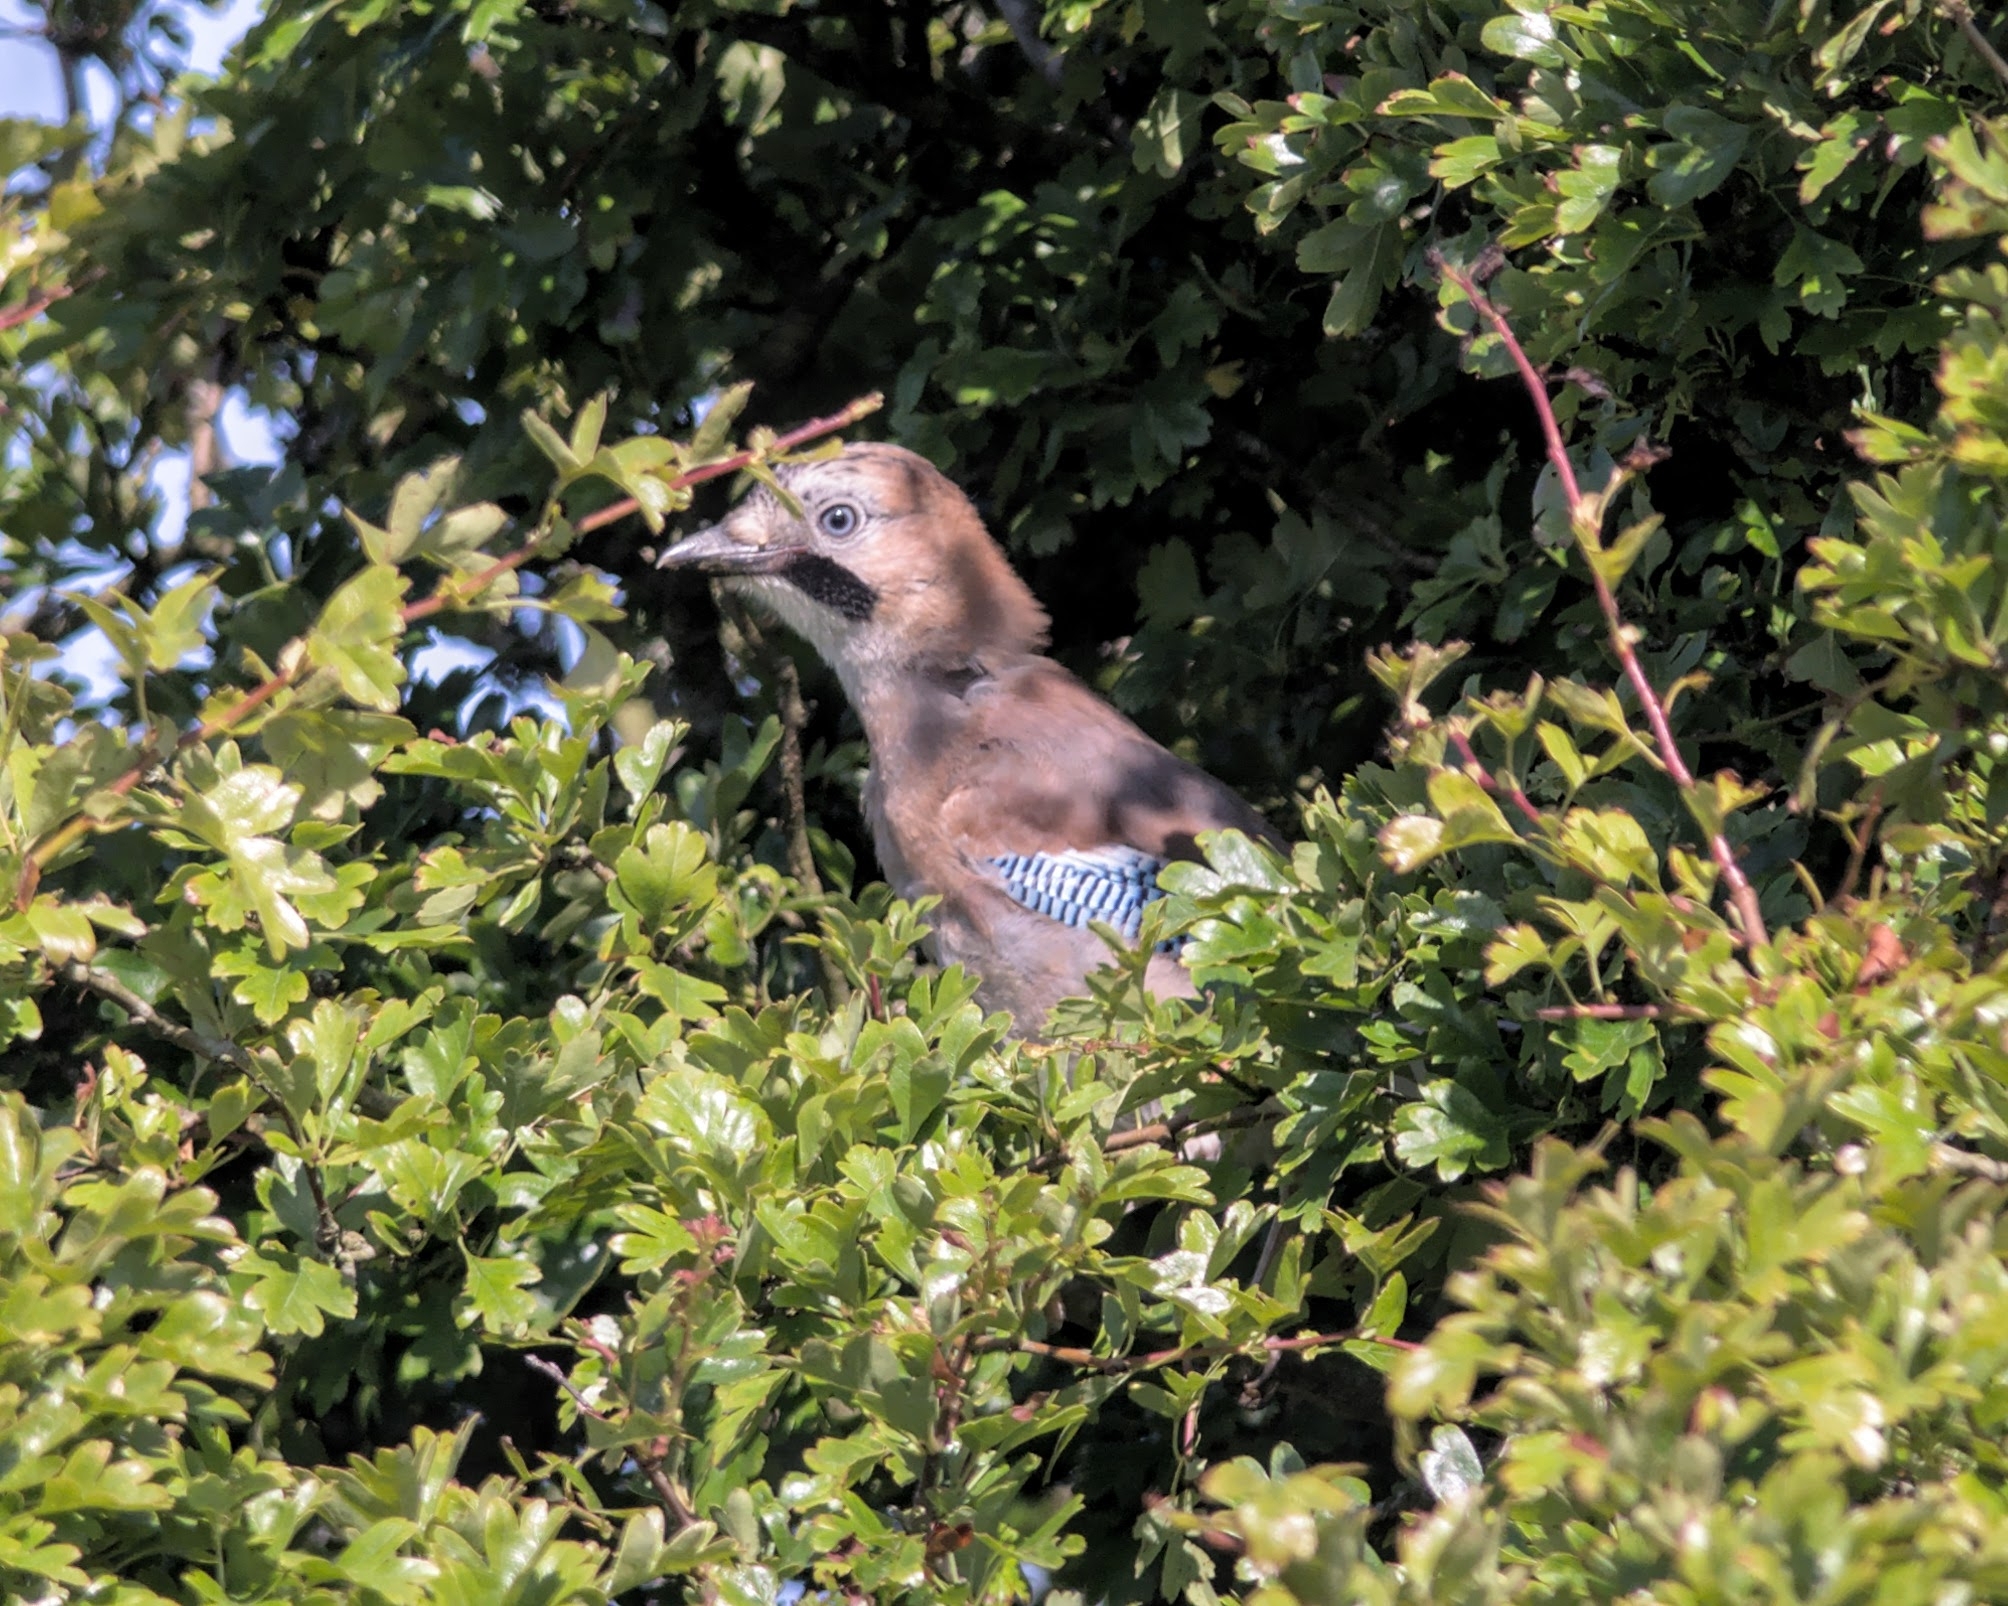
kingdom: Animalia
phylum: Chordata
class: Aves
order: Passeriformes
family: Corvidae
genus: Garrulus
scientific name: Garrulus glandarius
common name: Eurasian jay
